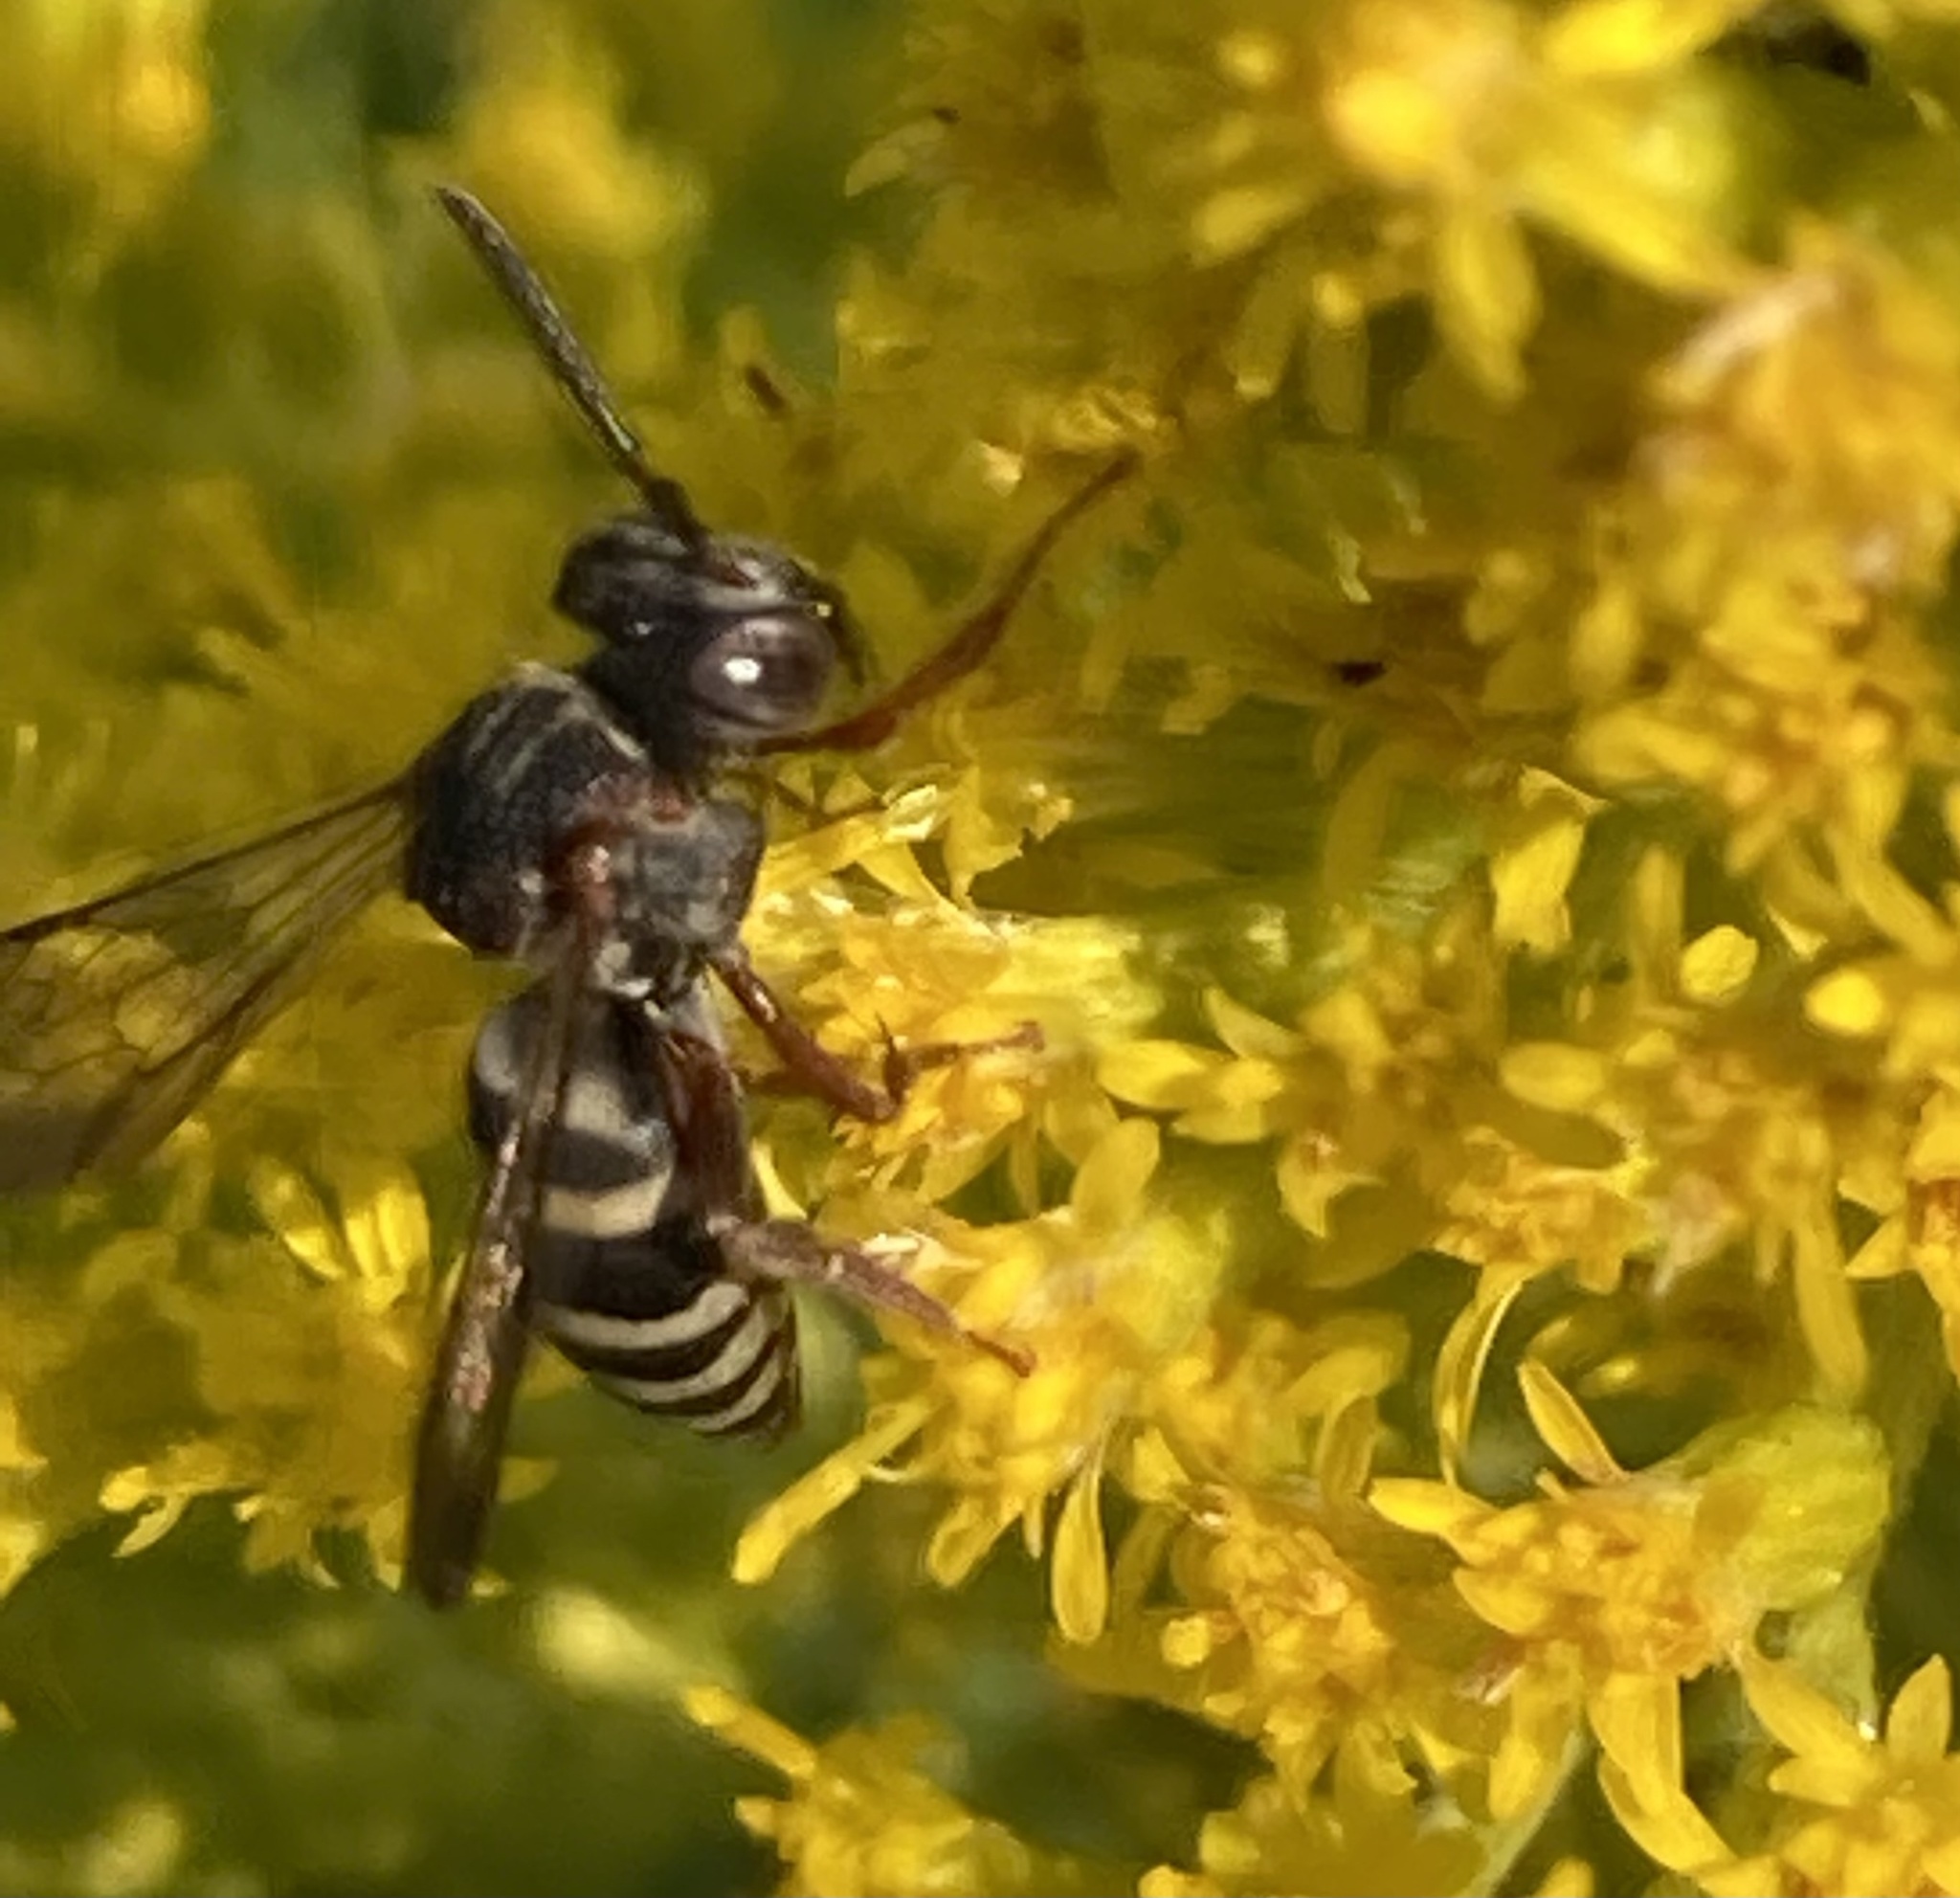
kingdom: Animalia
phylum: Arthropoda
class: Insecta
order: Hymenoptera
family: Apidae
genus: Epeolus
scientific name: Epeolus scutellaris
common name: Notch-backed cellophane-cuckoo bee
